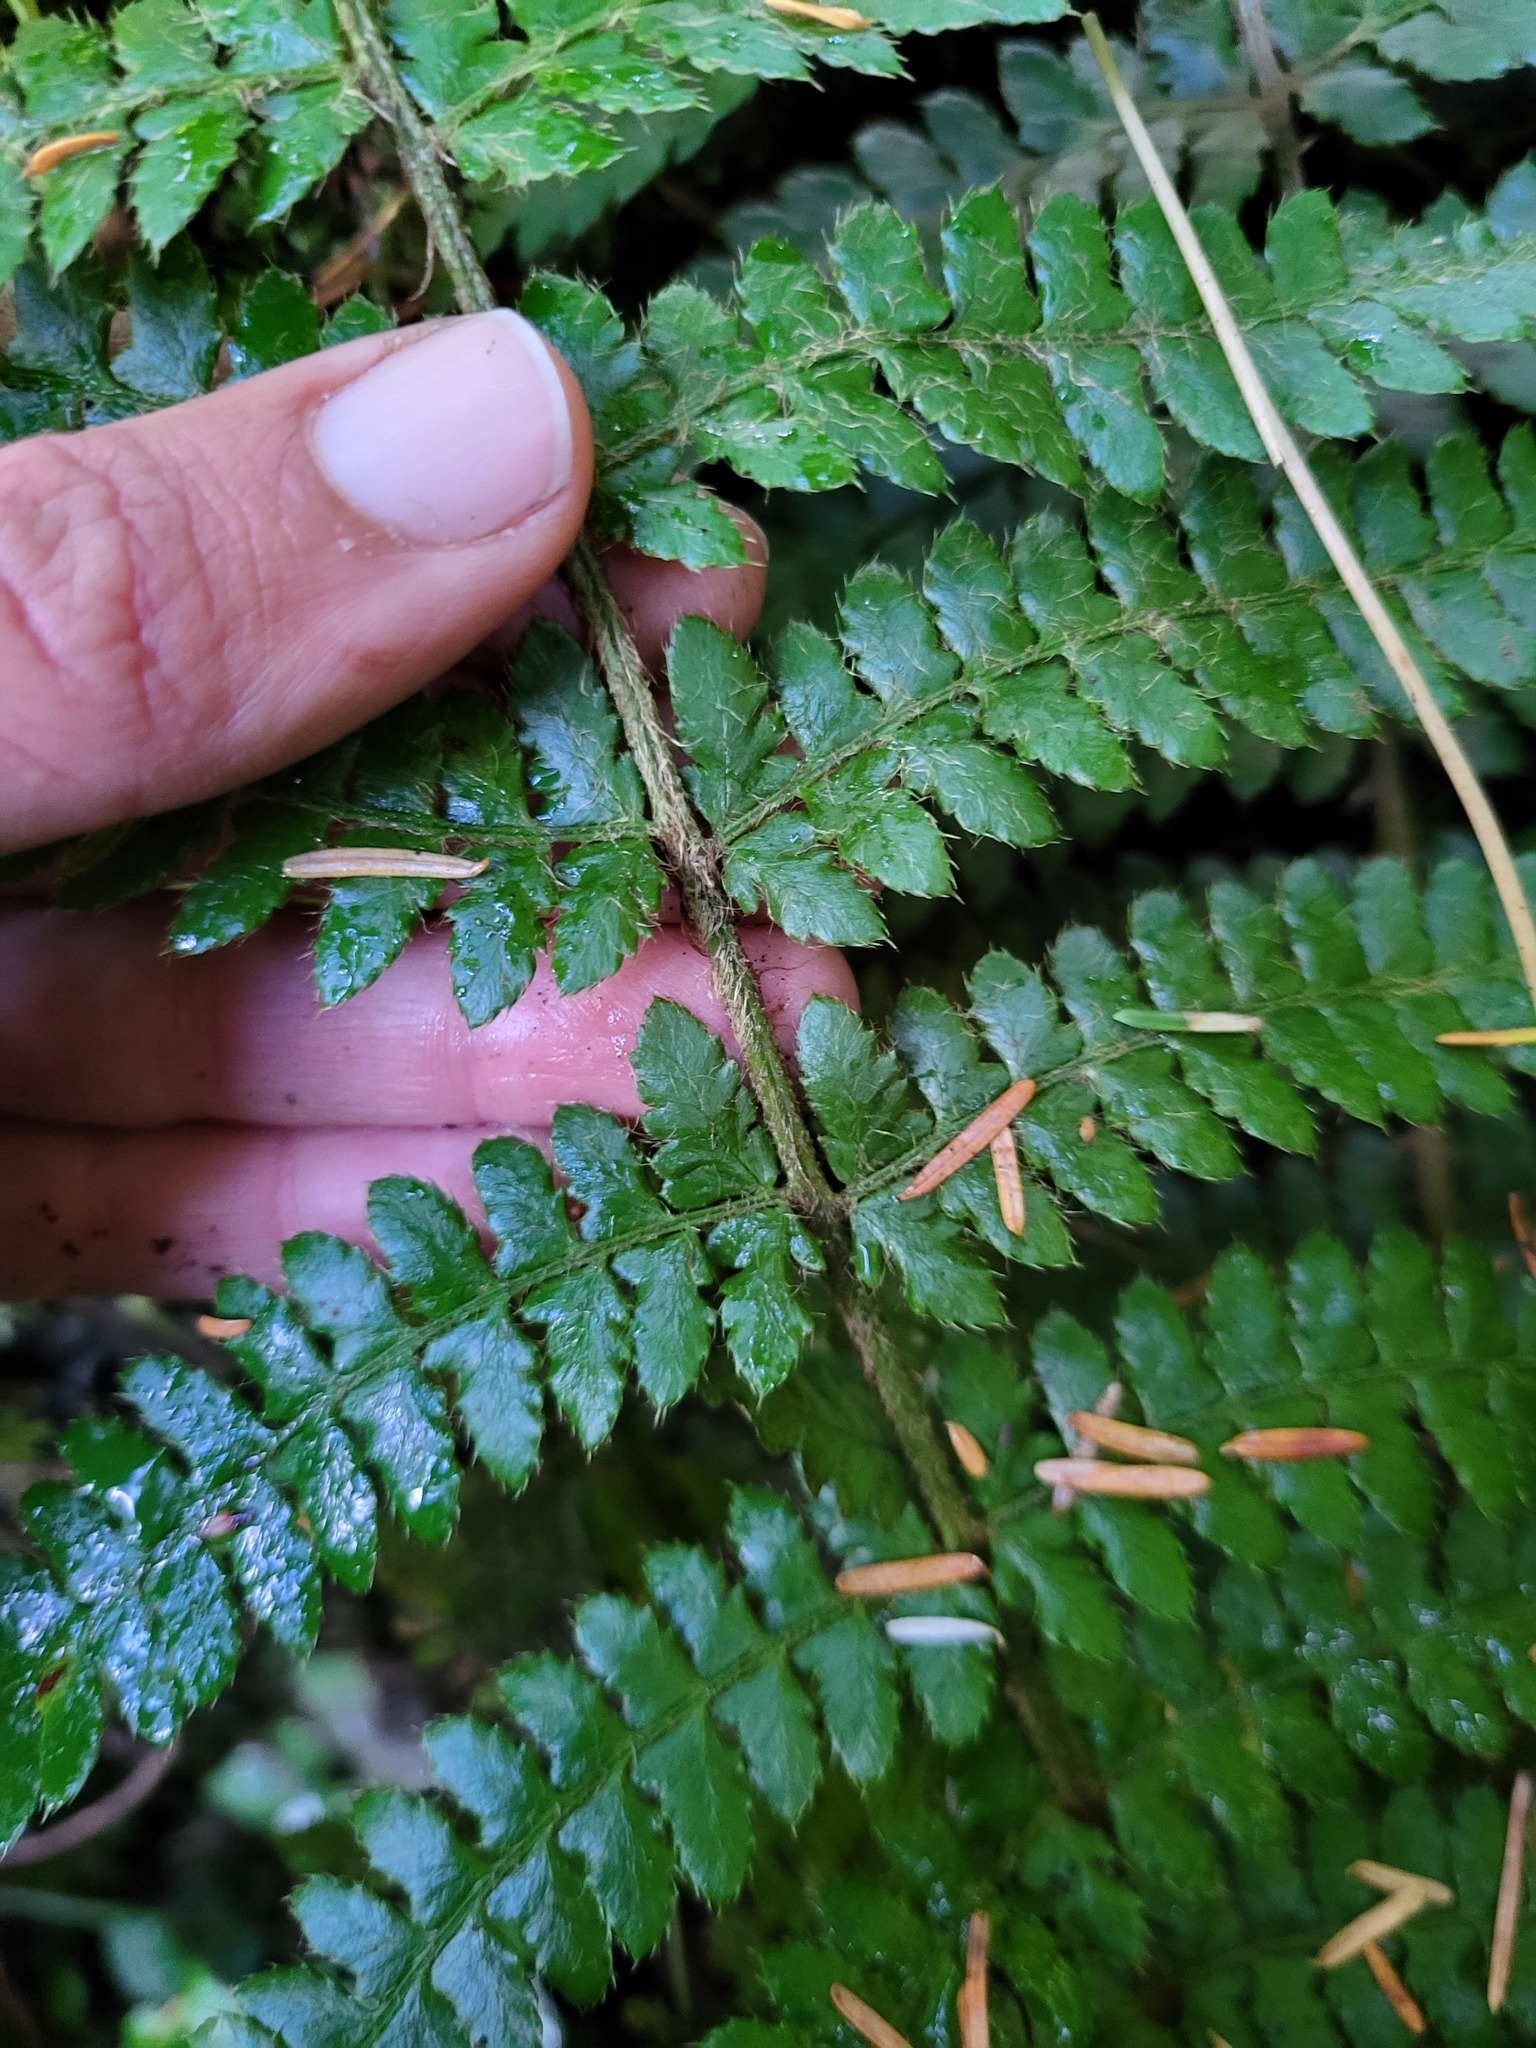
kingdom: Plantae
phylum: Tracheophyta
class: Polypodiopsida
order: Polypodiales
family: Dryopteridaceae
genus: Polystichum
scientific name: Polystichum braunii
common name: Braun's holly fern
